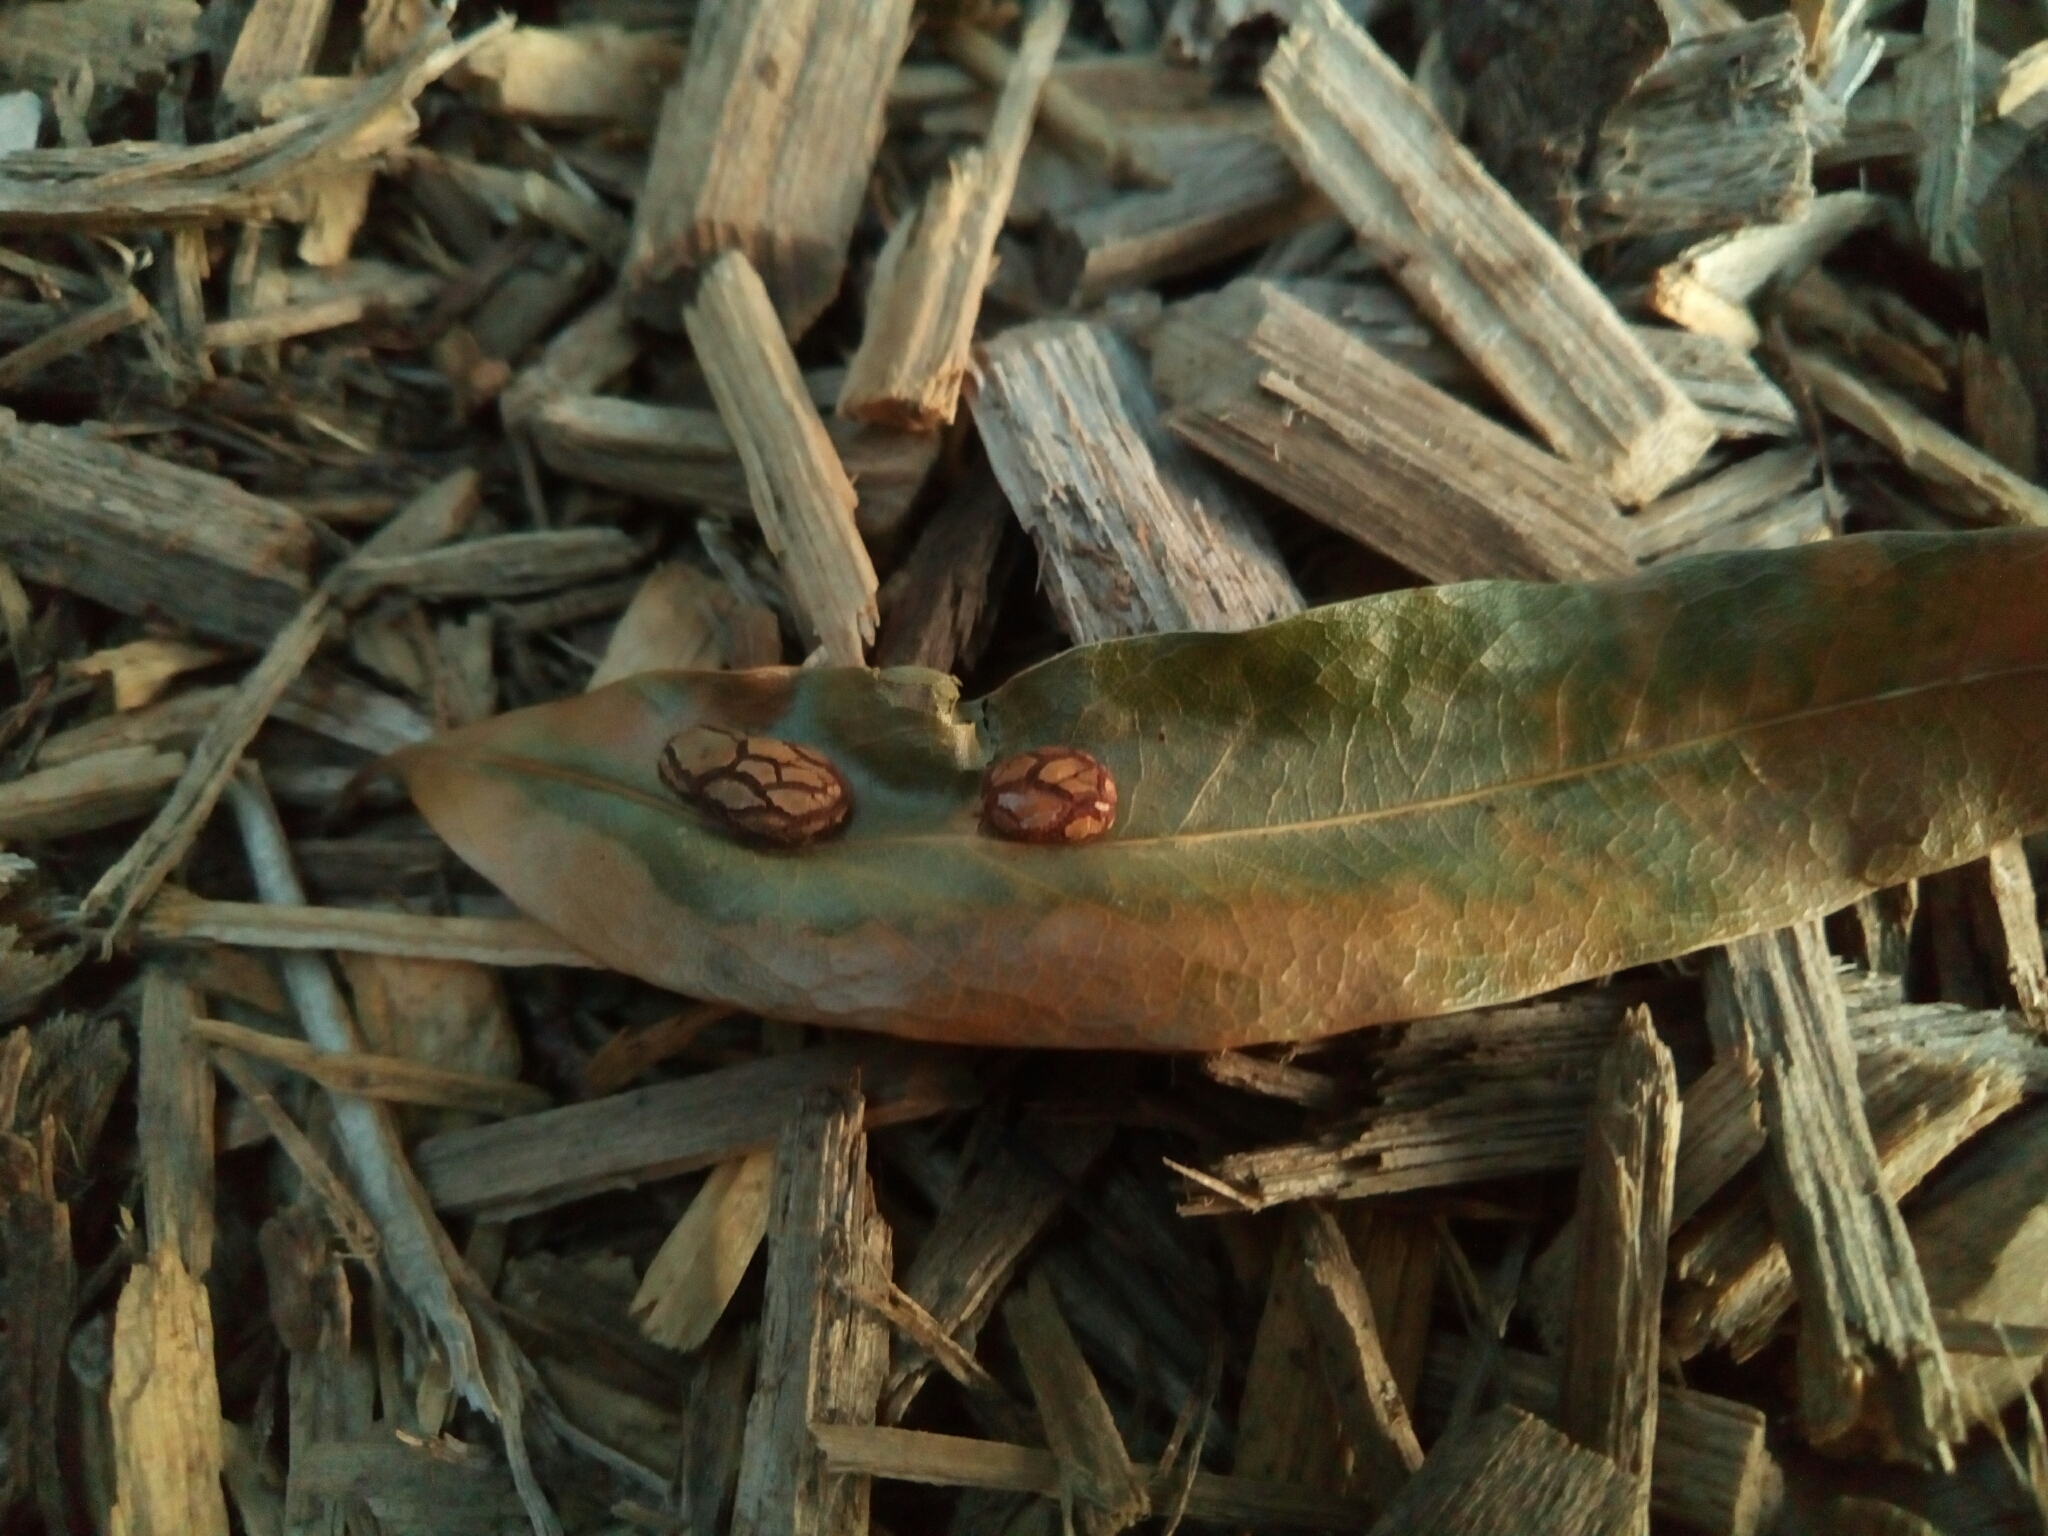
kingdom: Animalia
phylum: Arthropoda
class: Insecta
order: Diptera
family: Cecidomyiidae
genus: Polystepha
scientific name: Polystepha pilulae
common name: Oak leaf gall midge
